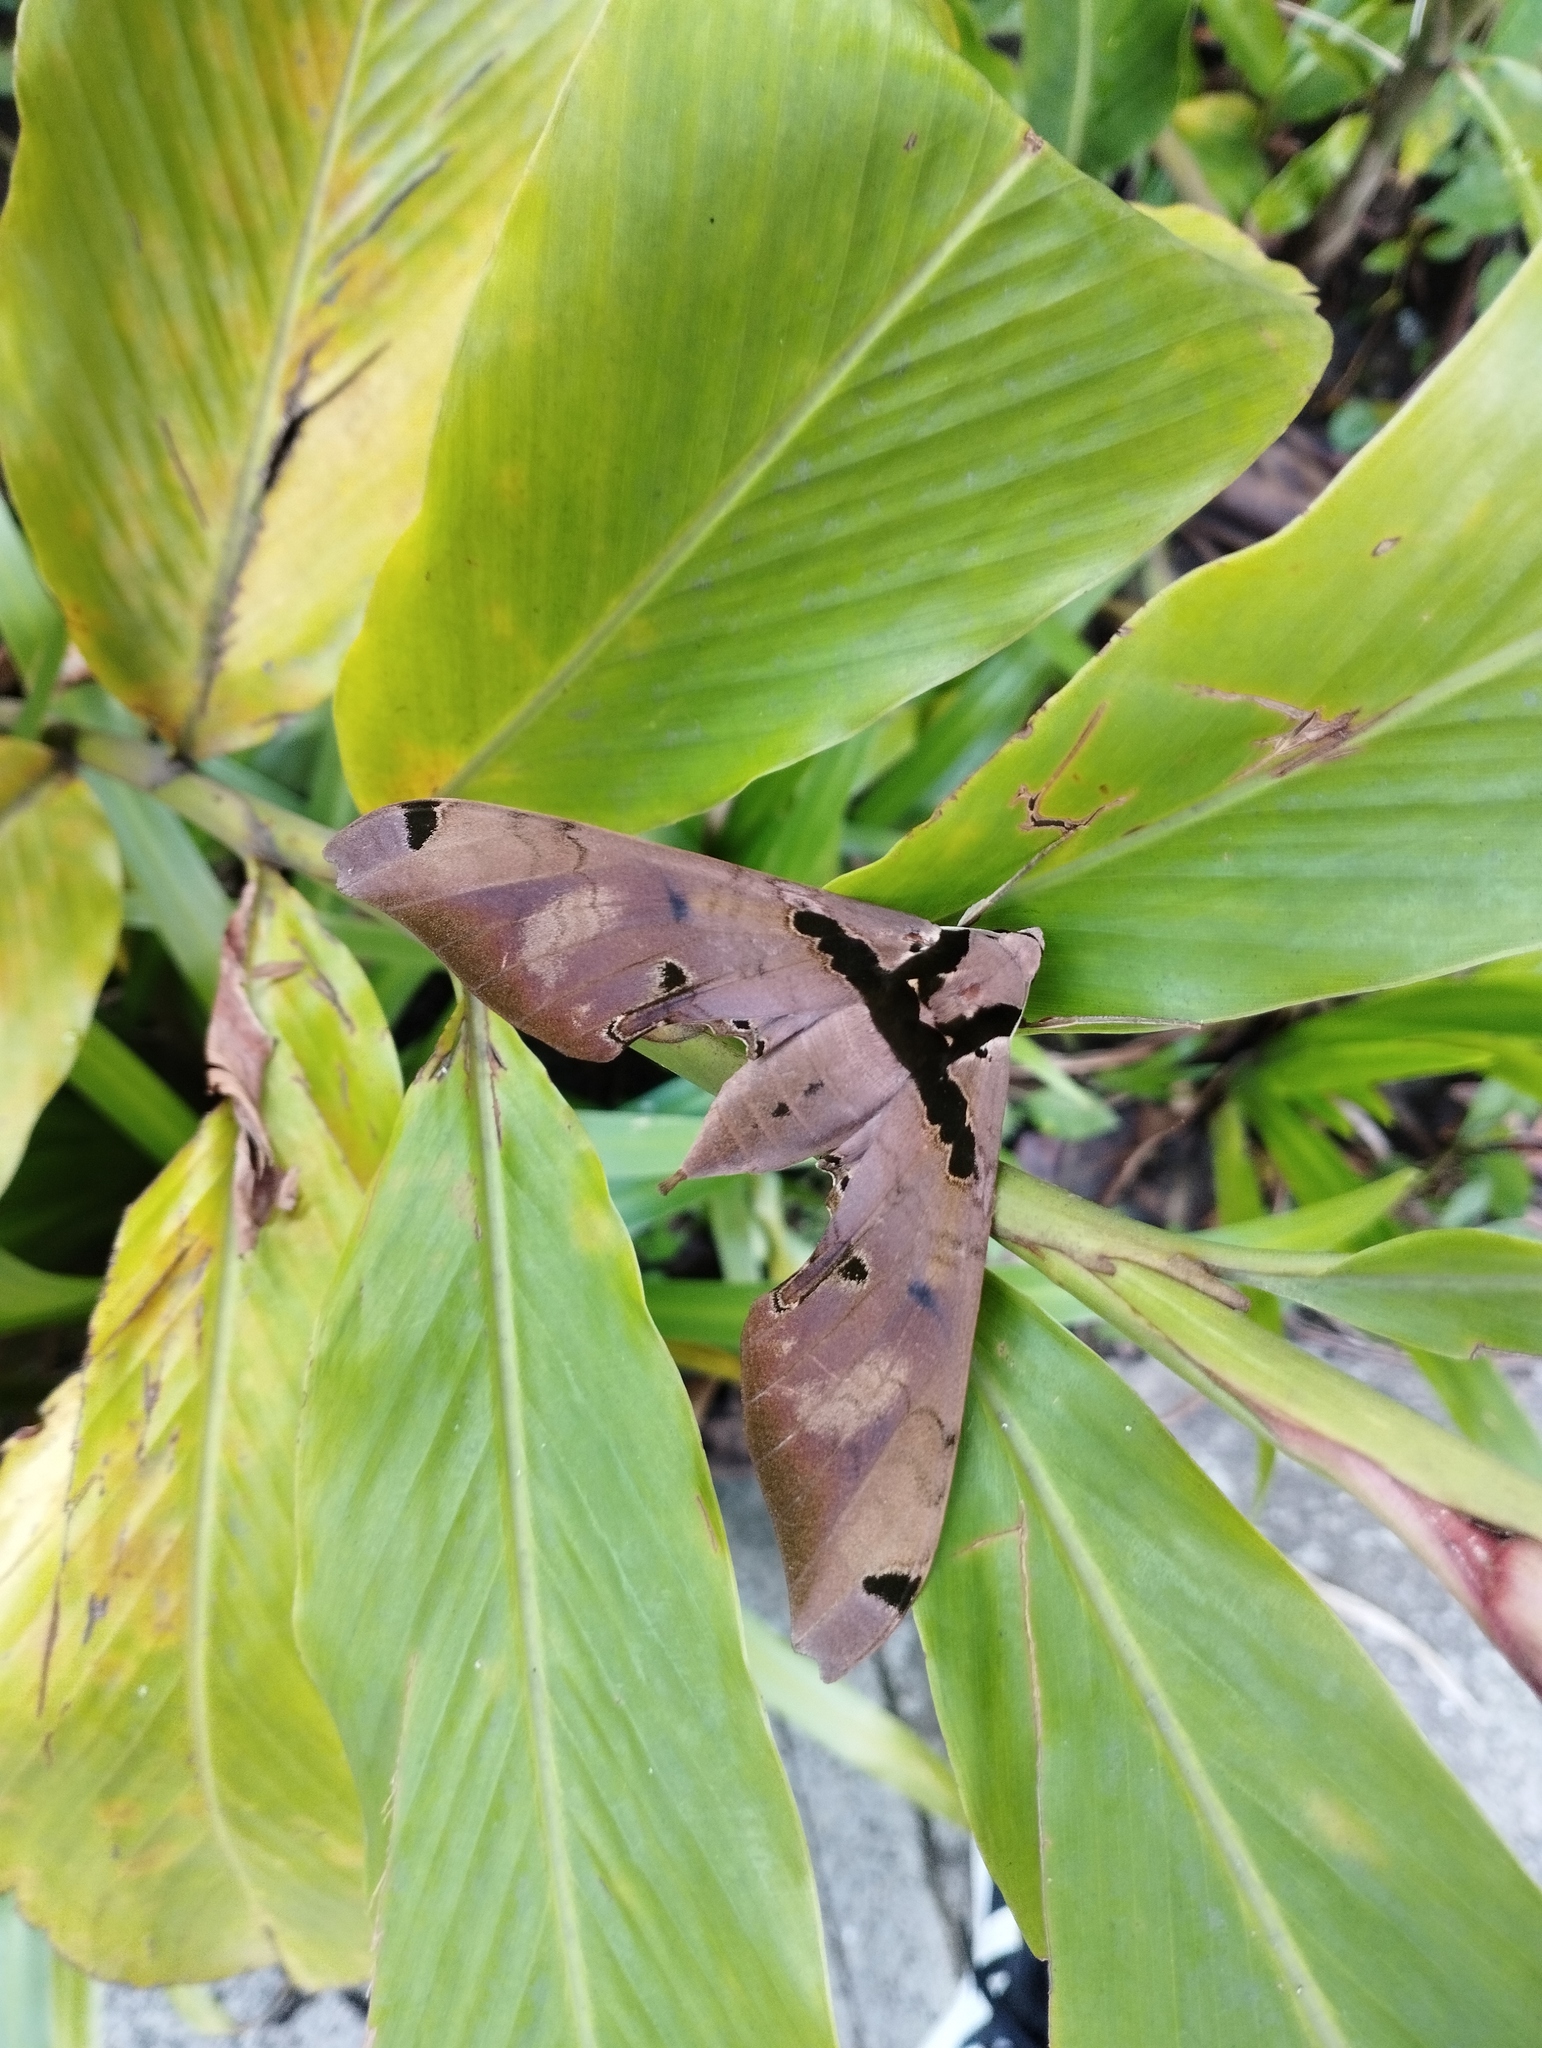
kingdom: Animalia
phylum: Arthropoda
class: Insecta
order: Lepidoptera
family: Sphingidae
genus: Adhemarius
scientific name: Adhemarius gannascus
